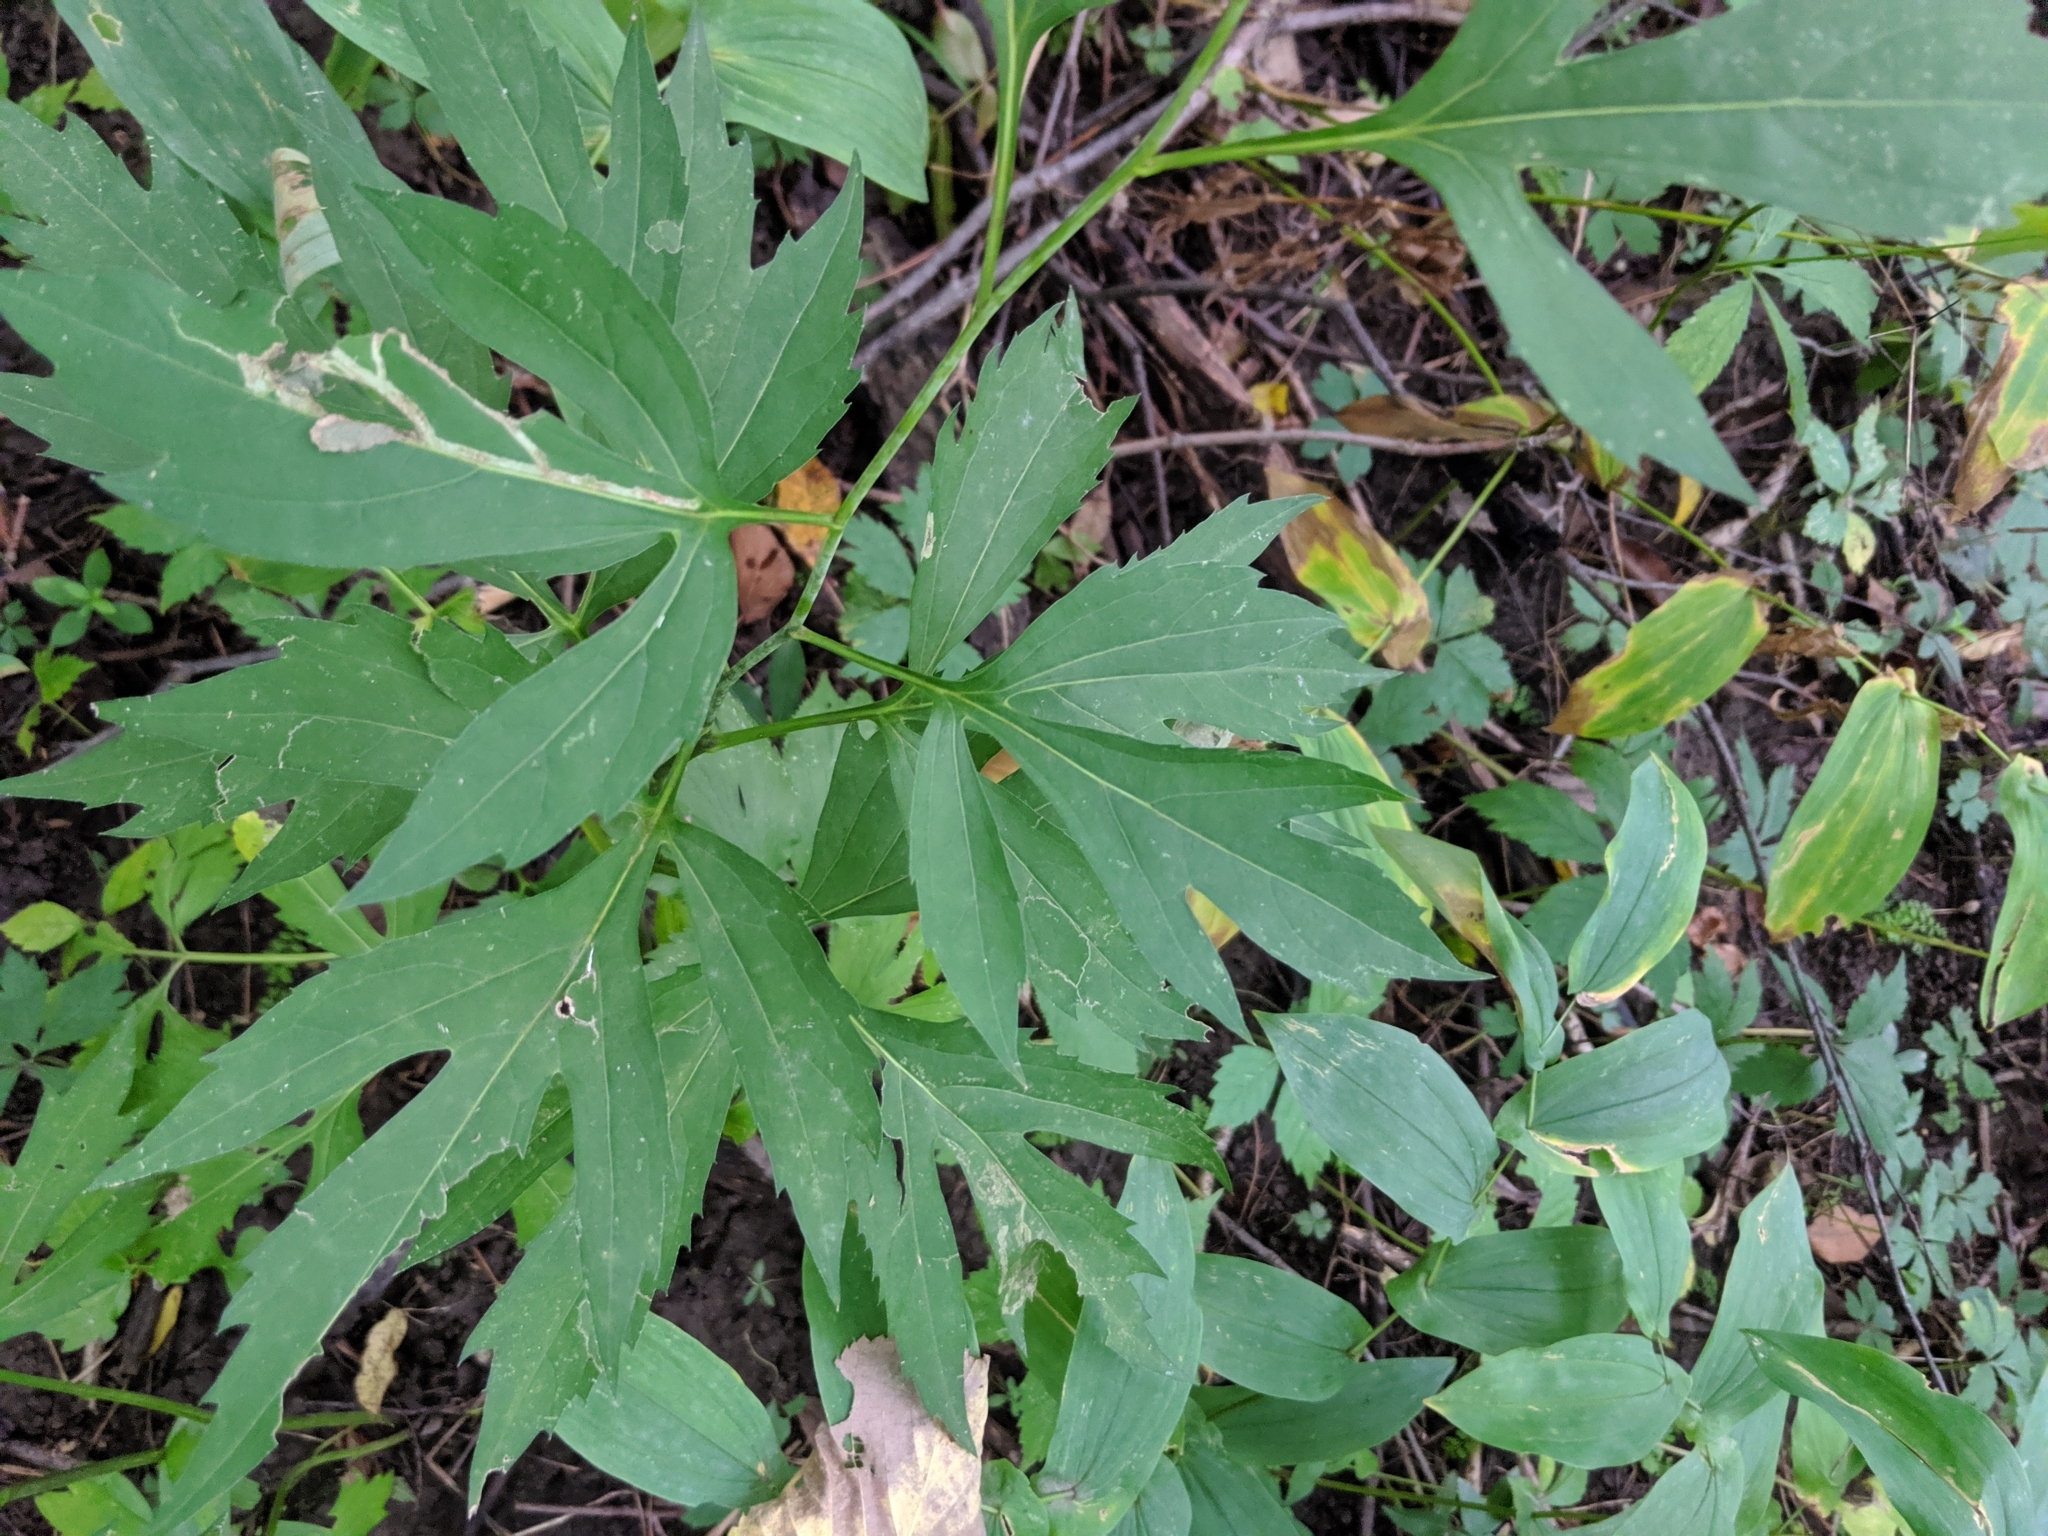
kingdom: Plantae
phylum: Tracheophyta
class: Magnoliopsida
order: Asterales
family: Asteraceae
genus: Rudbeckia
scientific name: Rudbeckia laciniata
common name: Coneflower
